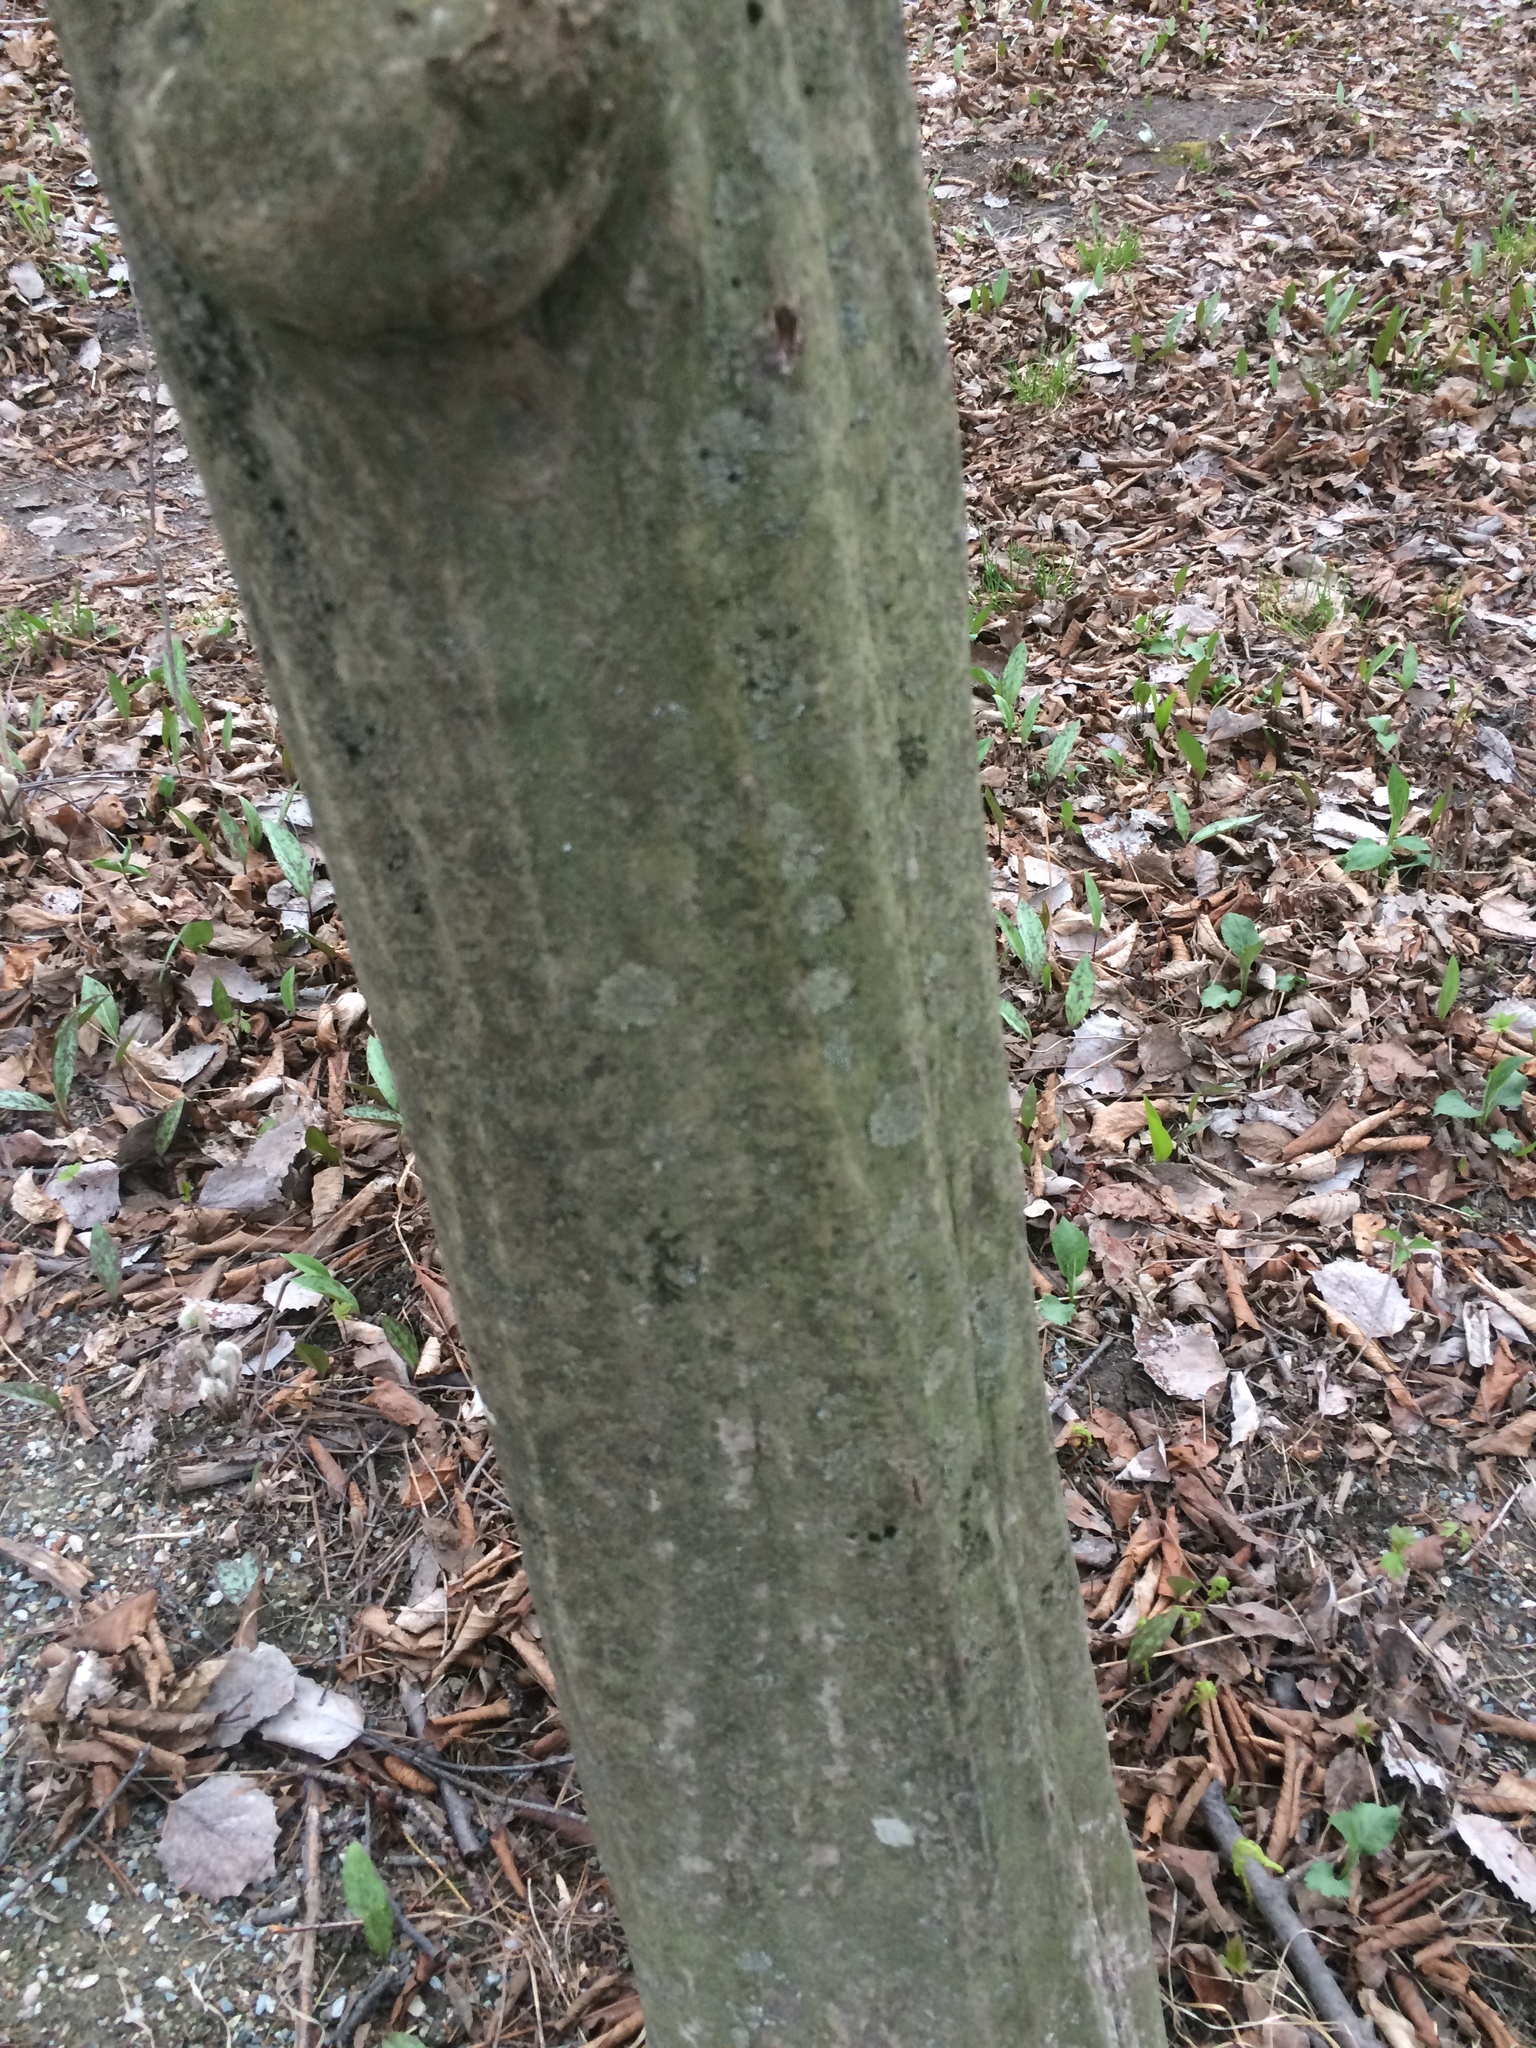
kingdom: Plantae
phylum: Tracheophyta
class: Magnoliopsida
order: Fagales
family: Betulaceae
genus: Carpinus
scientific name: Carpinus caroliniana
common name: American hornbeam
